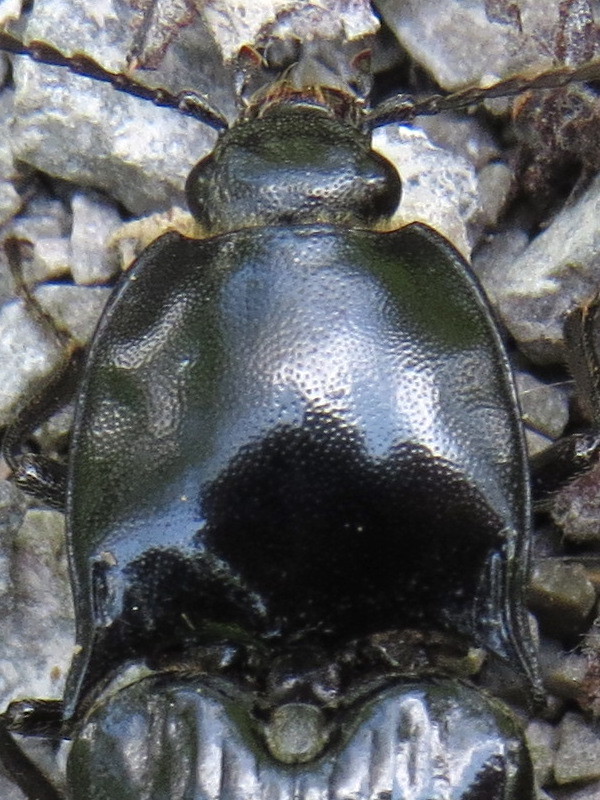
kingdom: Animalia
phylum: Arthropoda
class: Insecta
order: Coleoptera
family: Elateridae
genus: Melanactes
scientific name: Melanactes piceus
